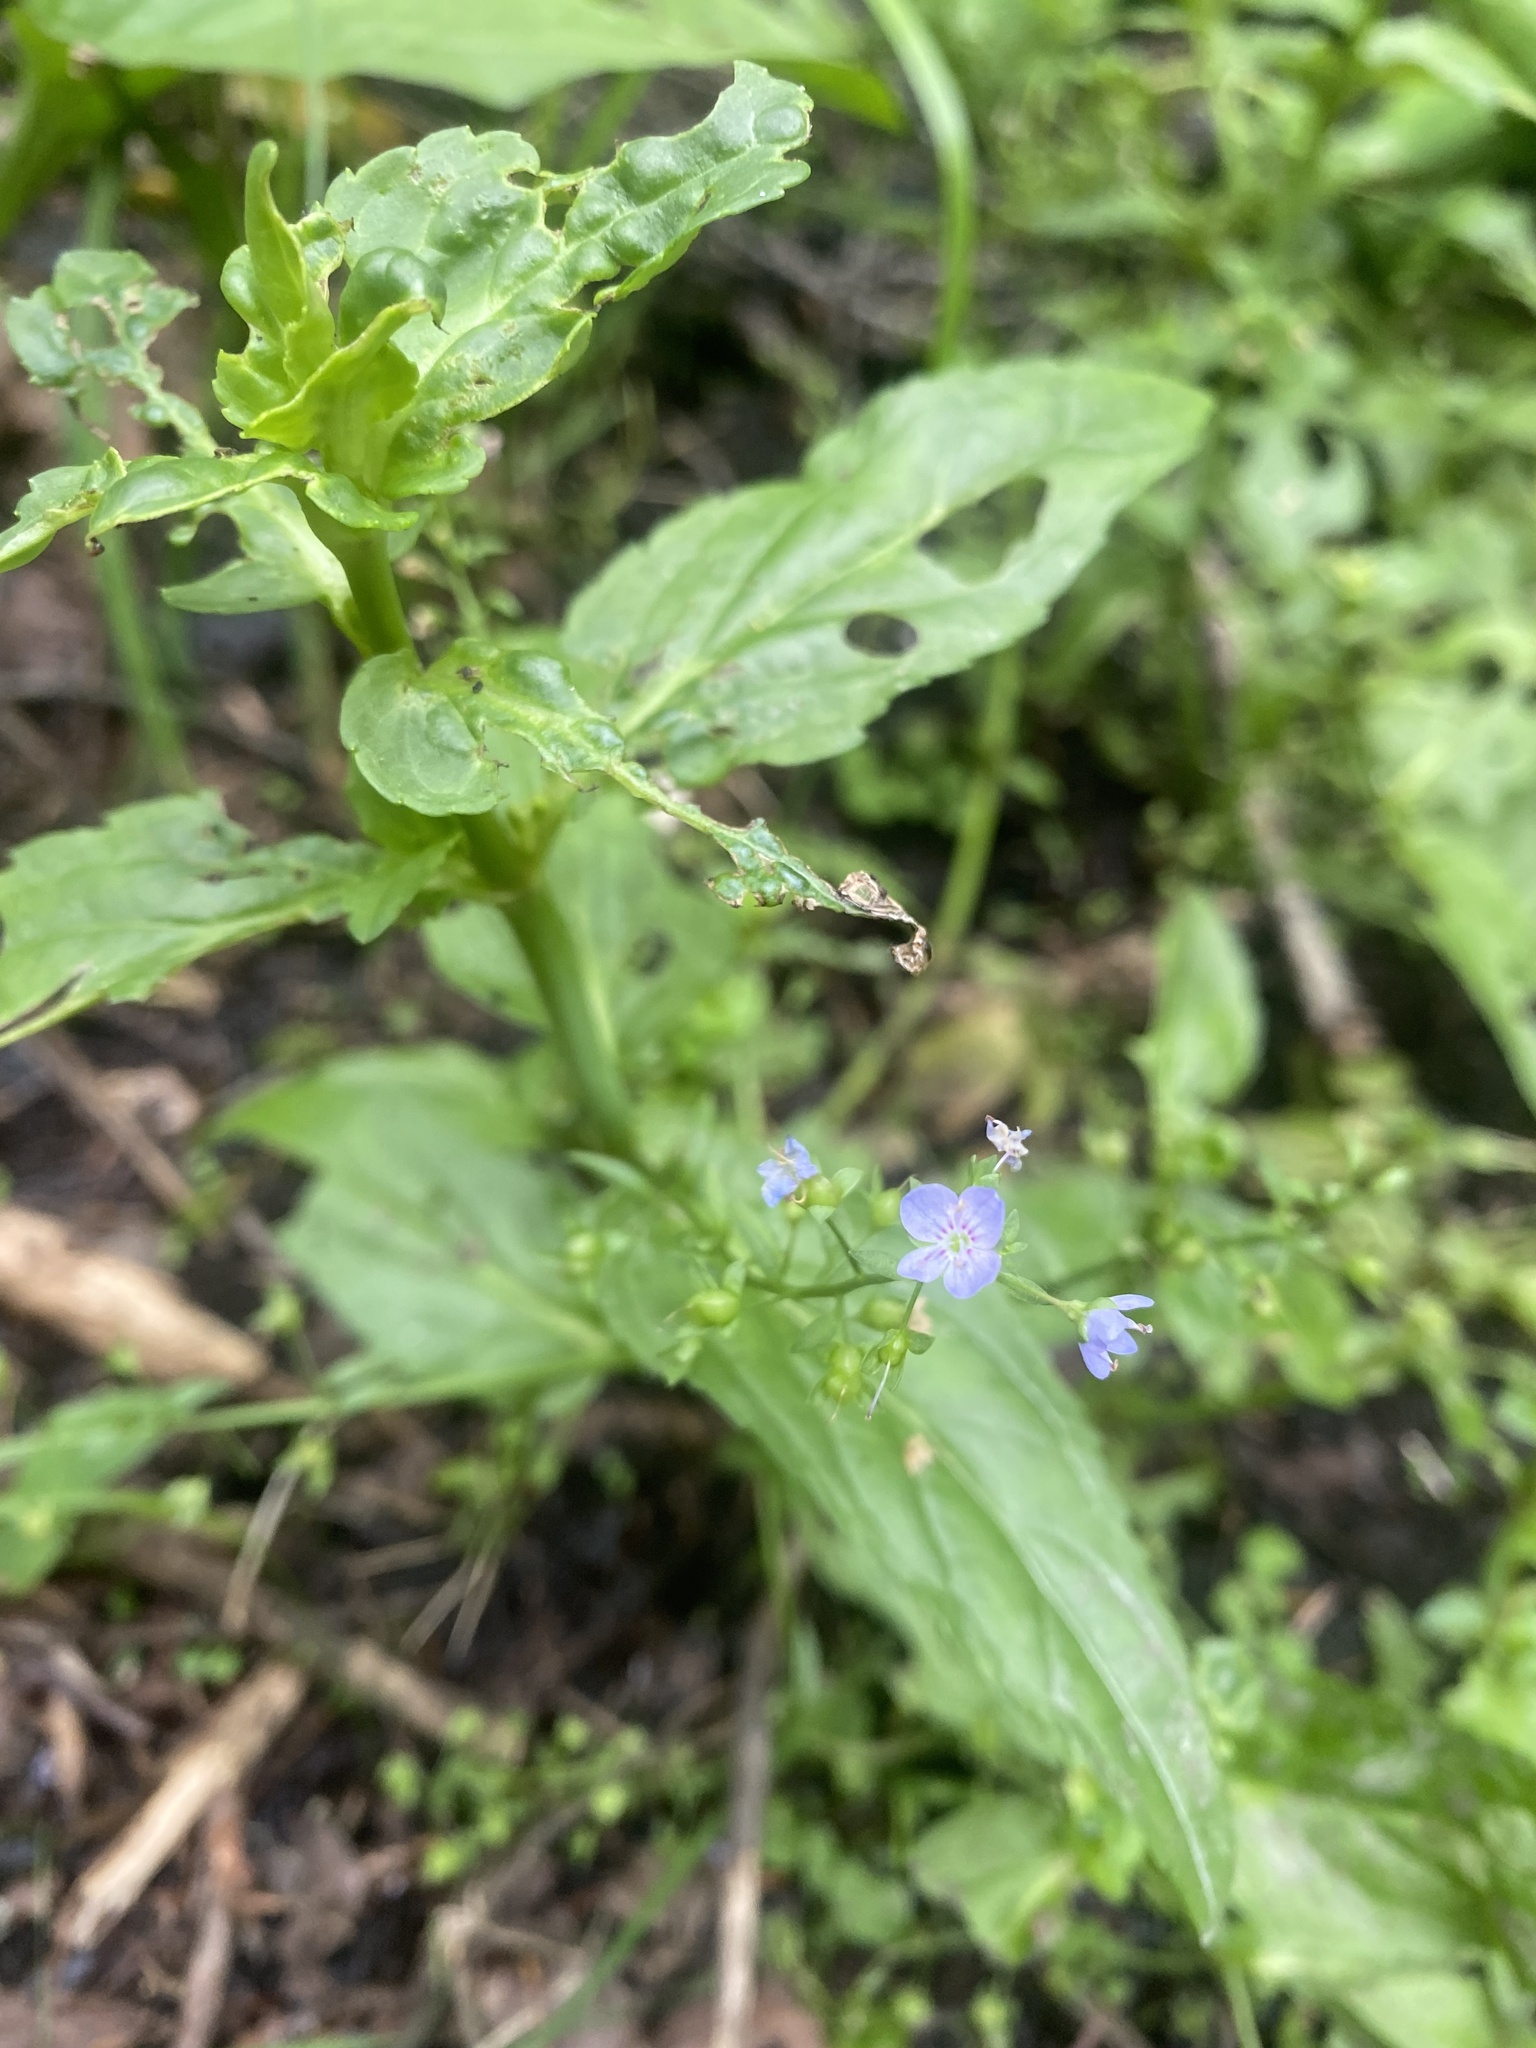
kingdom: Plantae
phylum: Tracheophyta
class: Magnoliopsida
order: Lamiales
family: Plantaginaceae
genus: Veronica
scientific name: Veronica americana
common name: American brooklime
